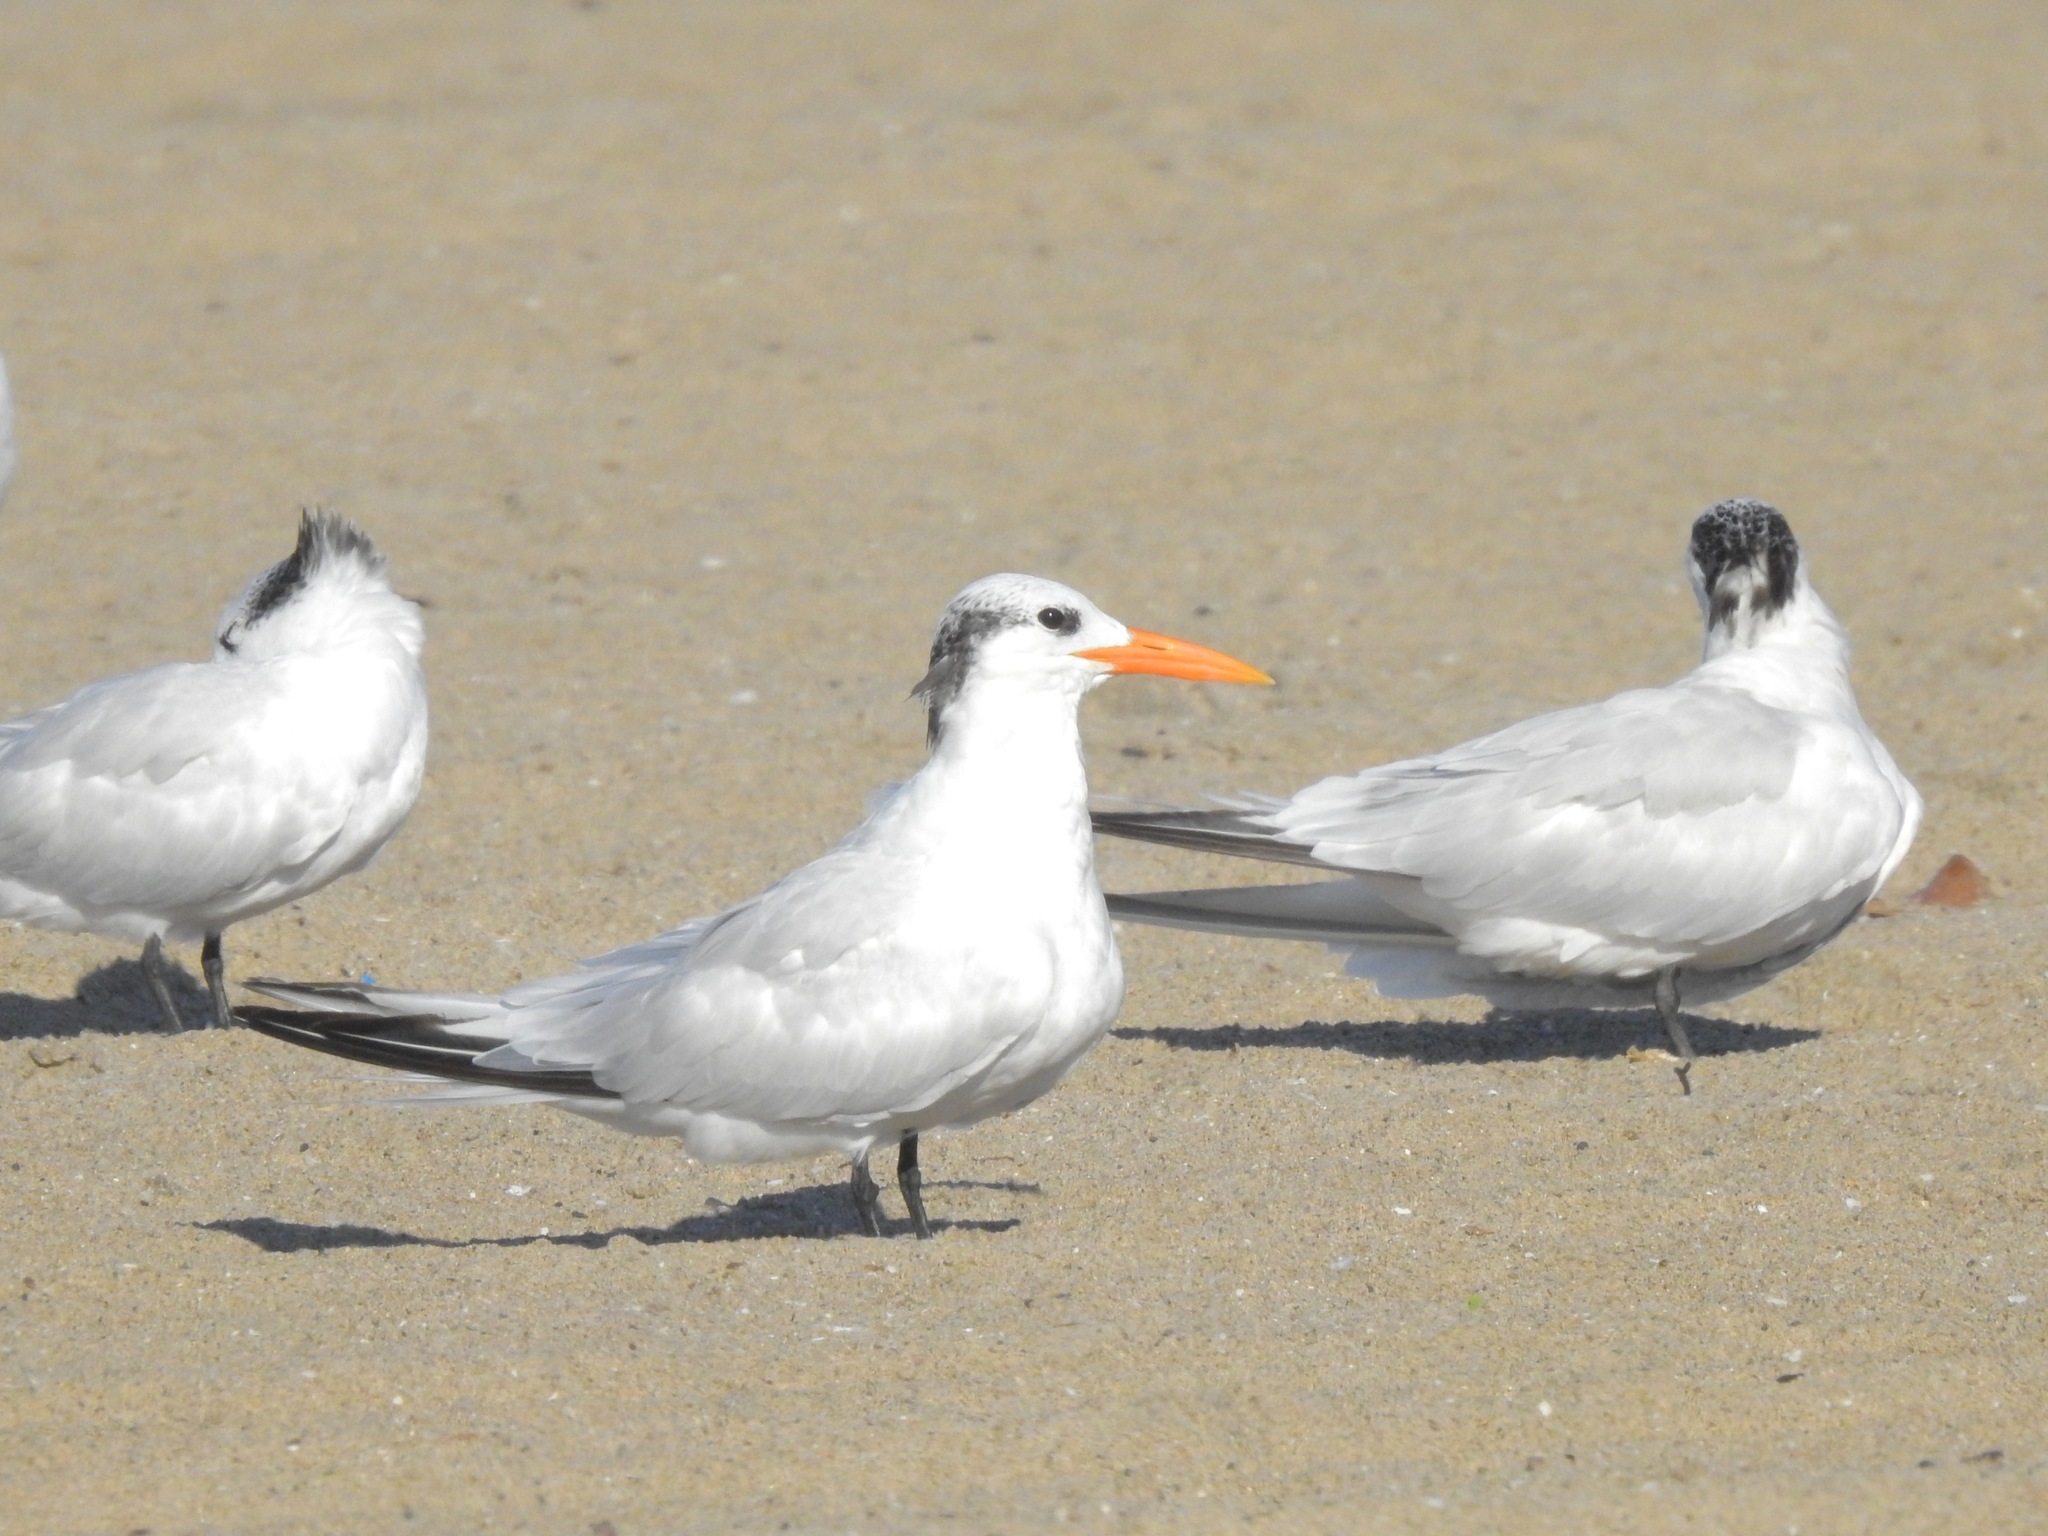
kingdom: Animalia
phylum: Chordata
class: Aves
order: Charadriiformes
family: Laridae
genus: Thalasseus
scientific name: Thalasseus maximus
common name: Royal tern
